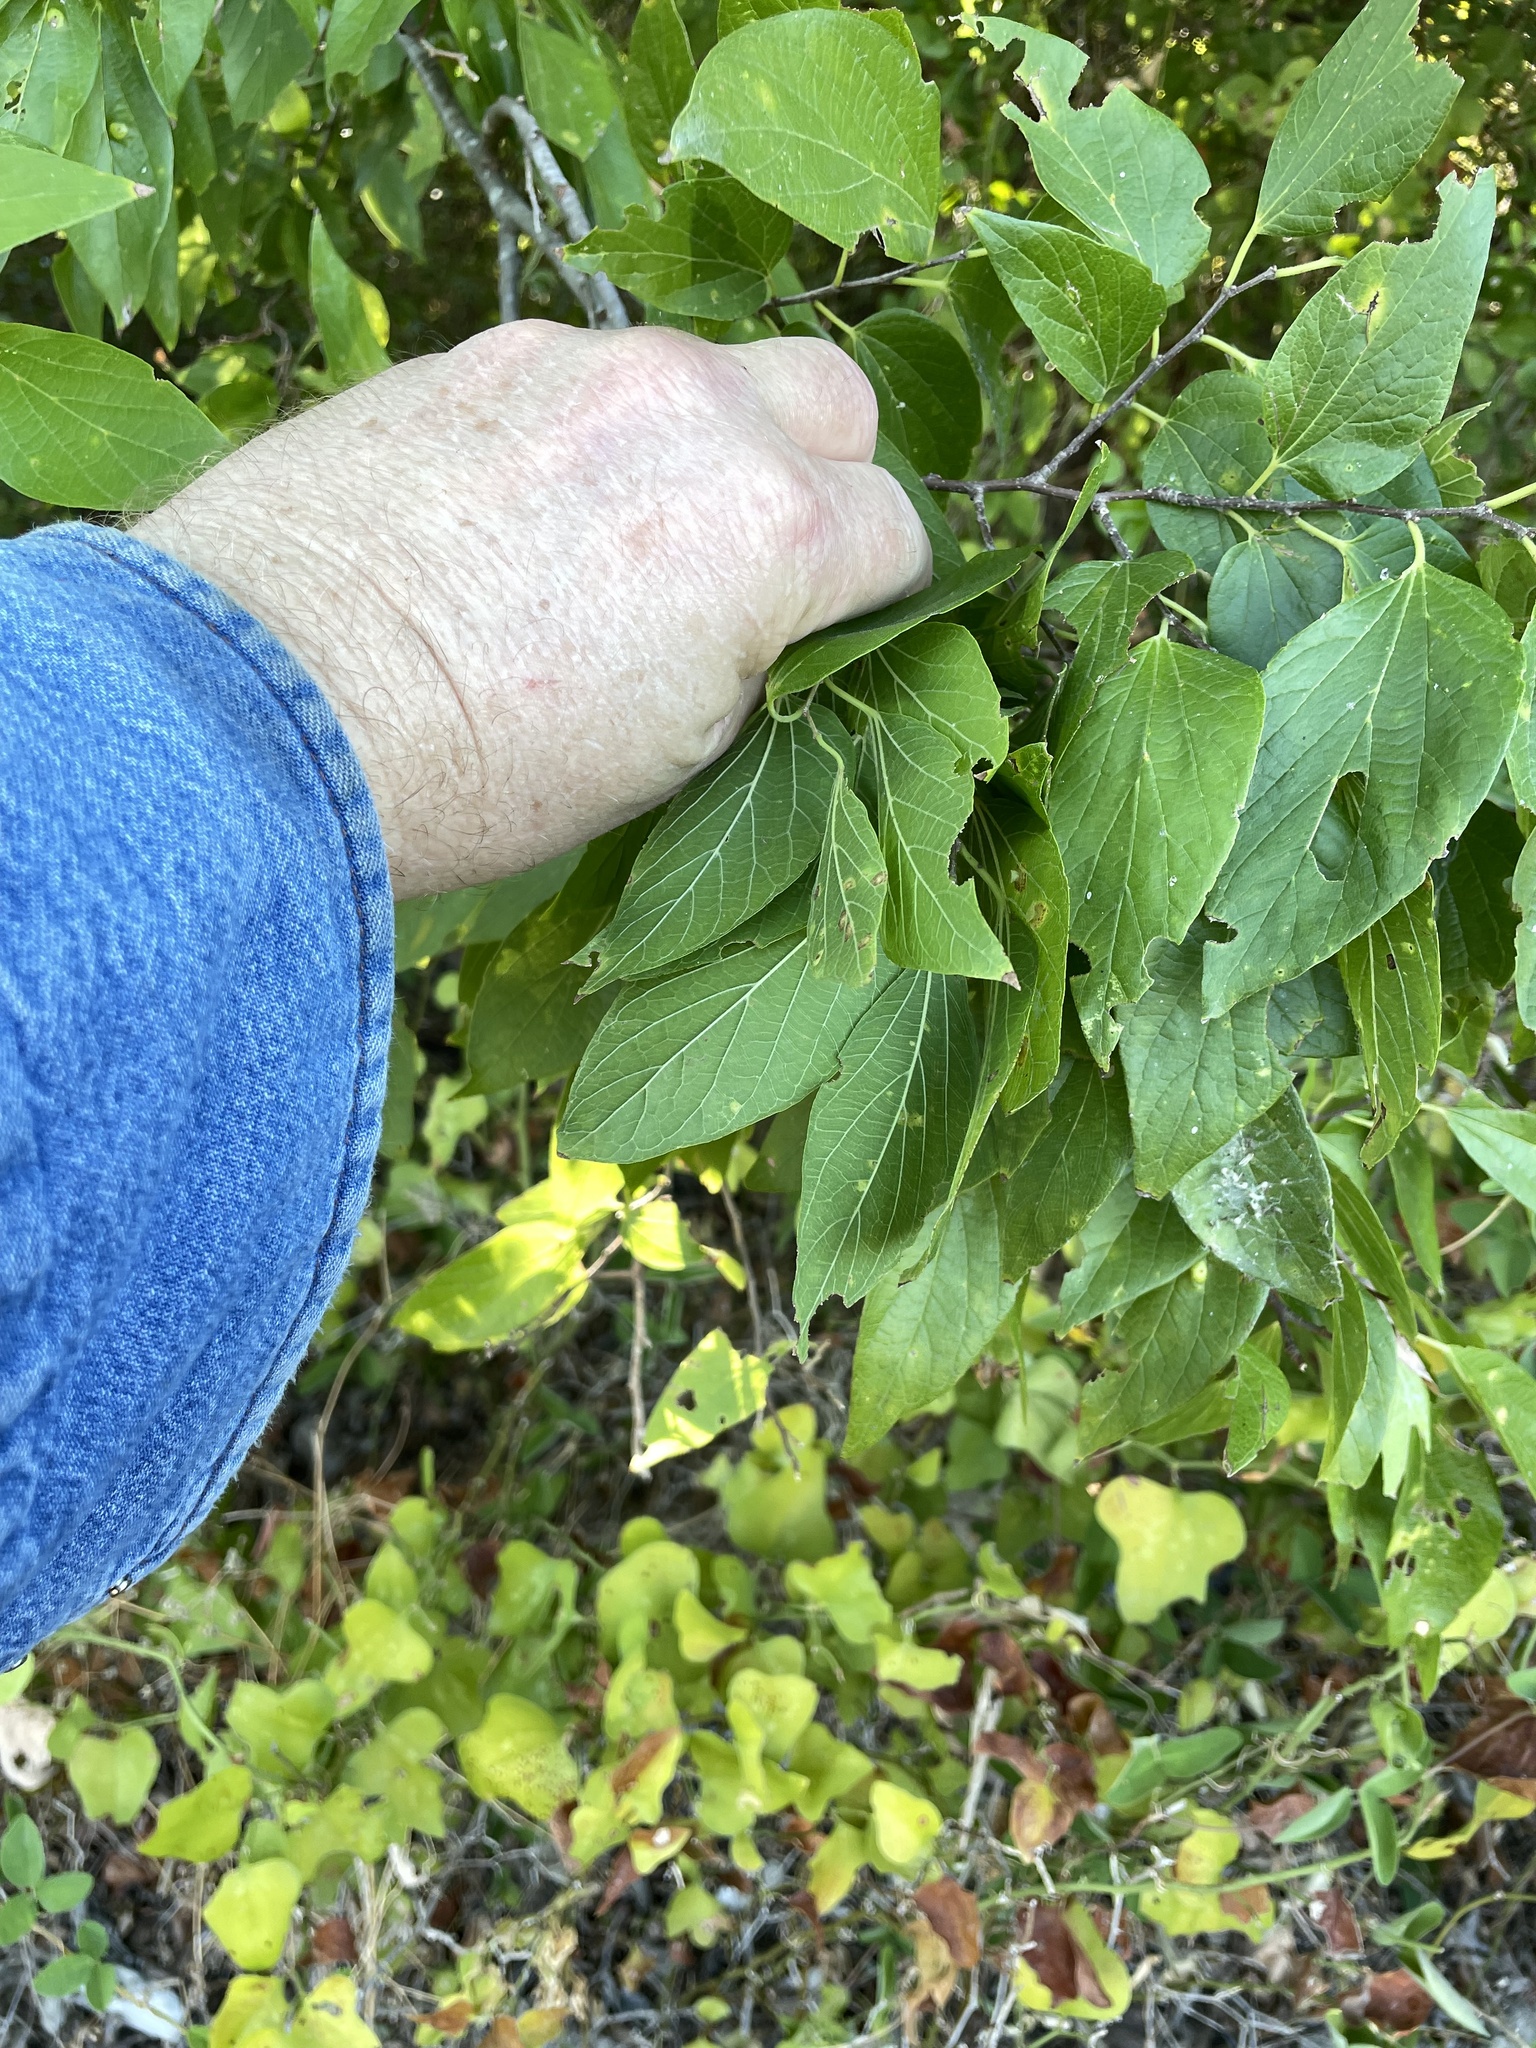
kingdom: Plantae
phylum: Tracheophyta
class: Magnoliopsida
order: Rosales
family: Cannabaceae
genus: Celtis
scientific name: Celtis laevigata
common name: Sugarberry
